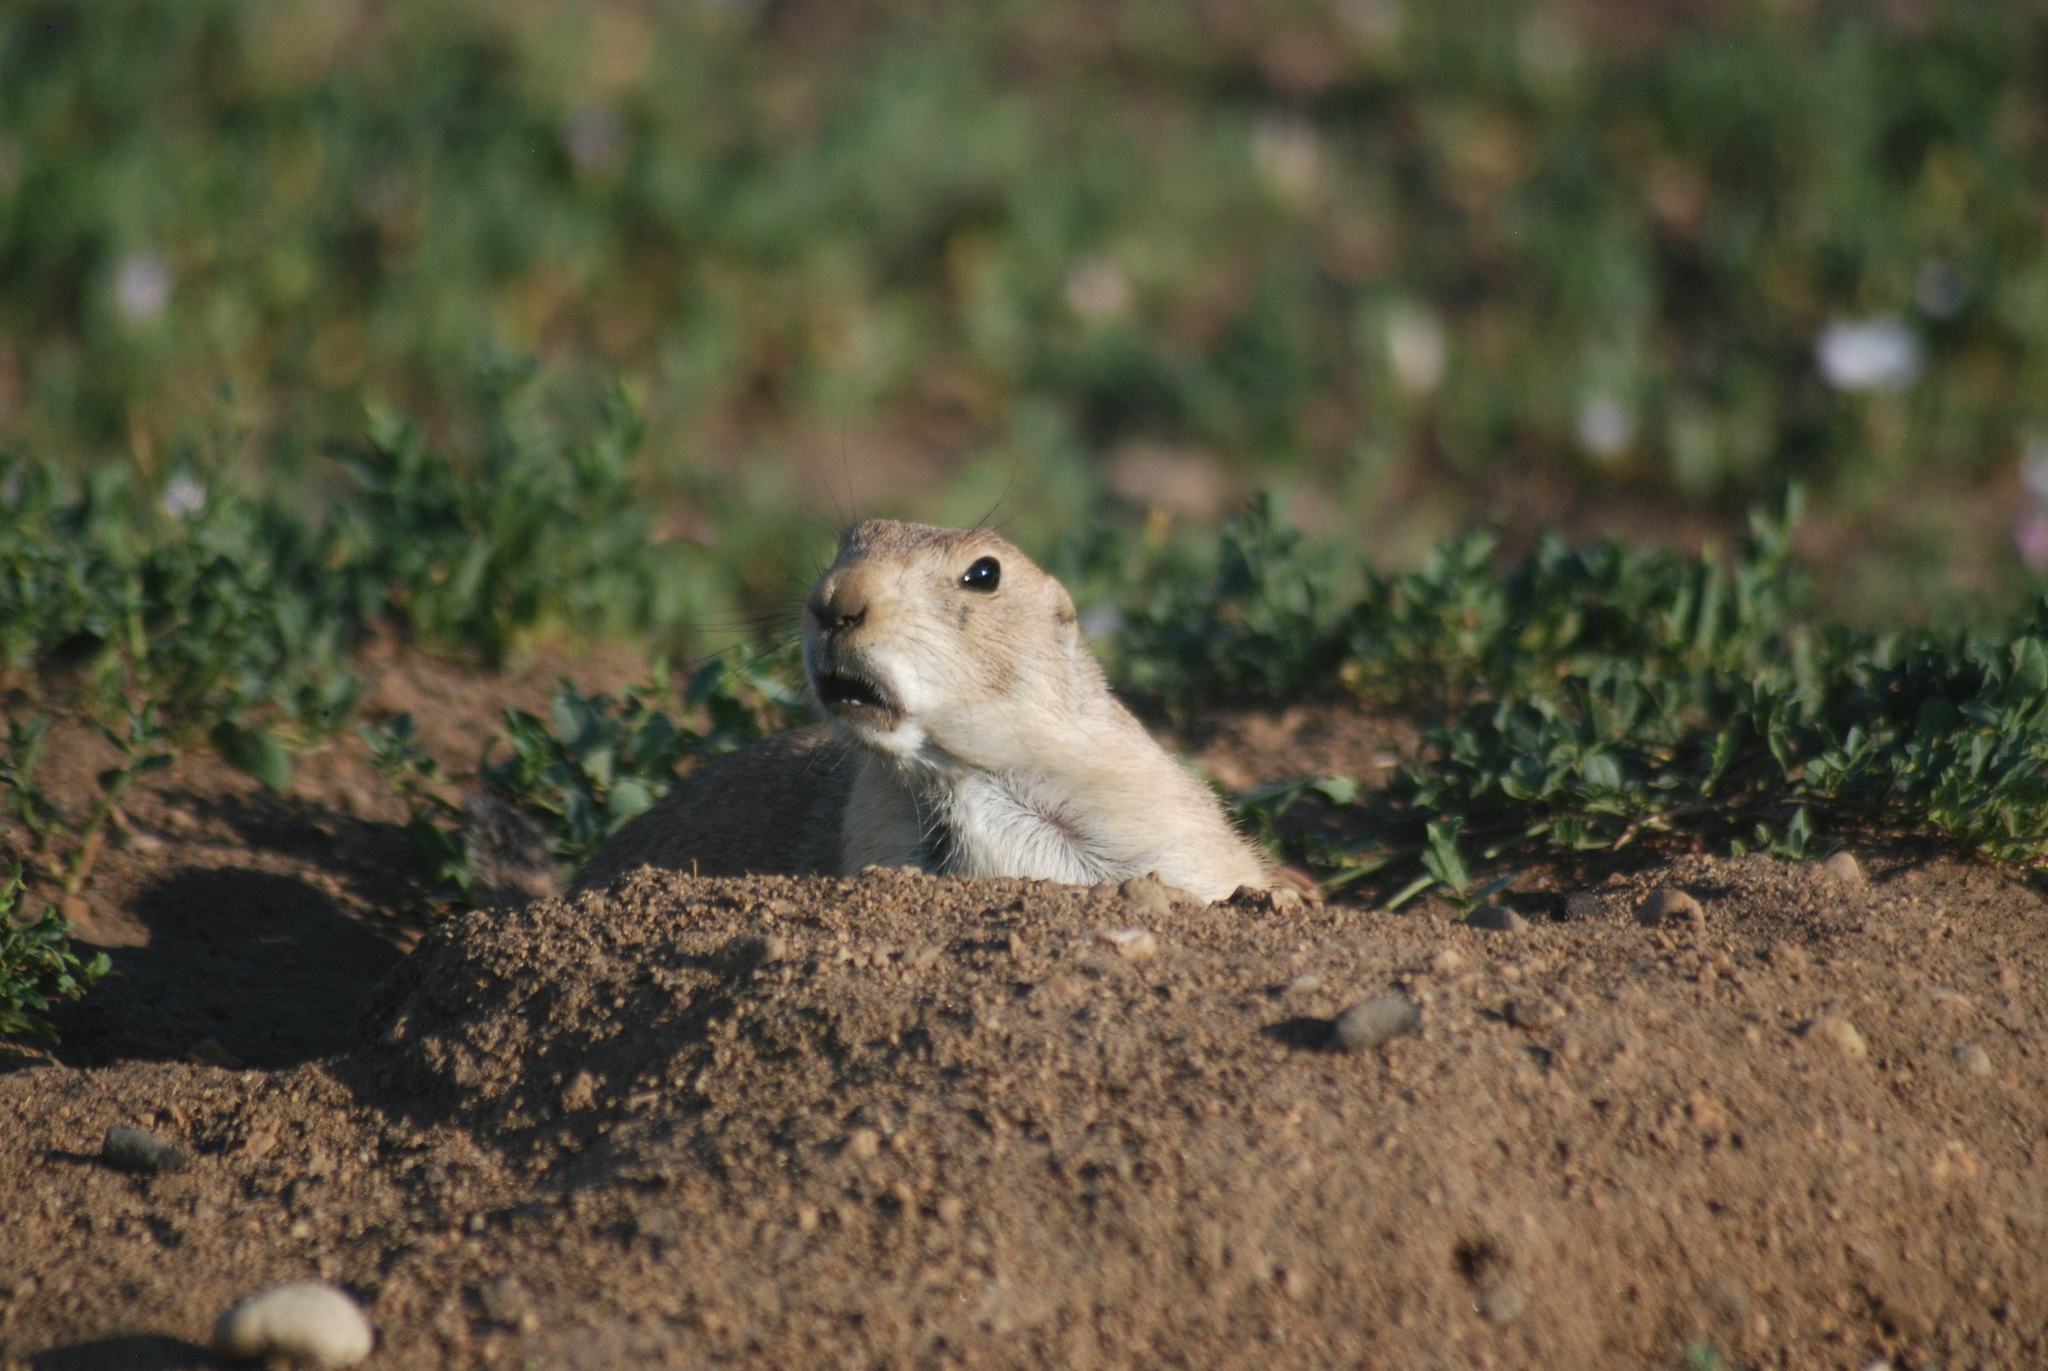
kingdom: Animalia
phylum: Chordata
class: Mammalia
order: Rodentia
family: Sciuridae
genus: Cynomys
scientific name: Cynomys ludovicianus
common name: Black-tailed prairie dog
